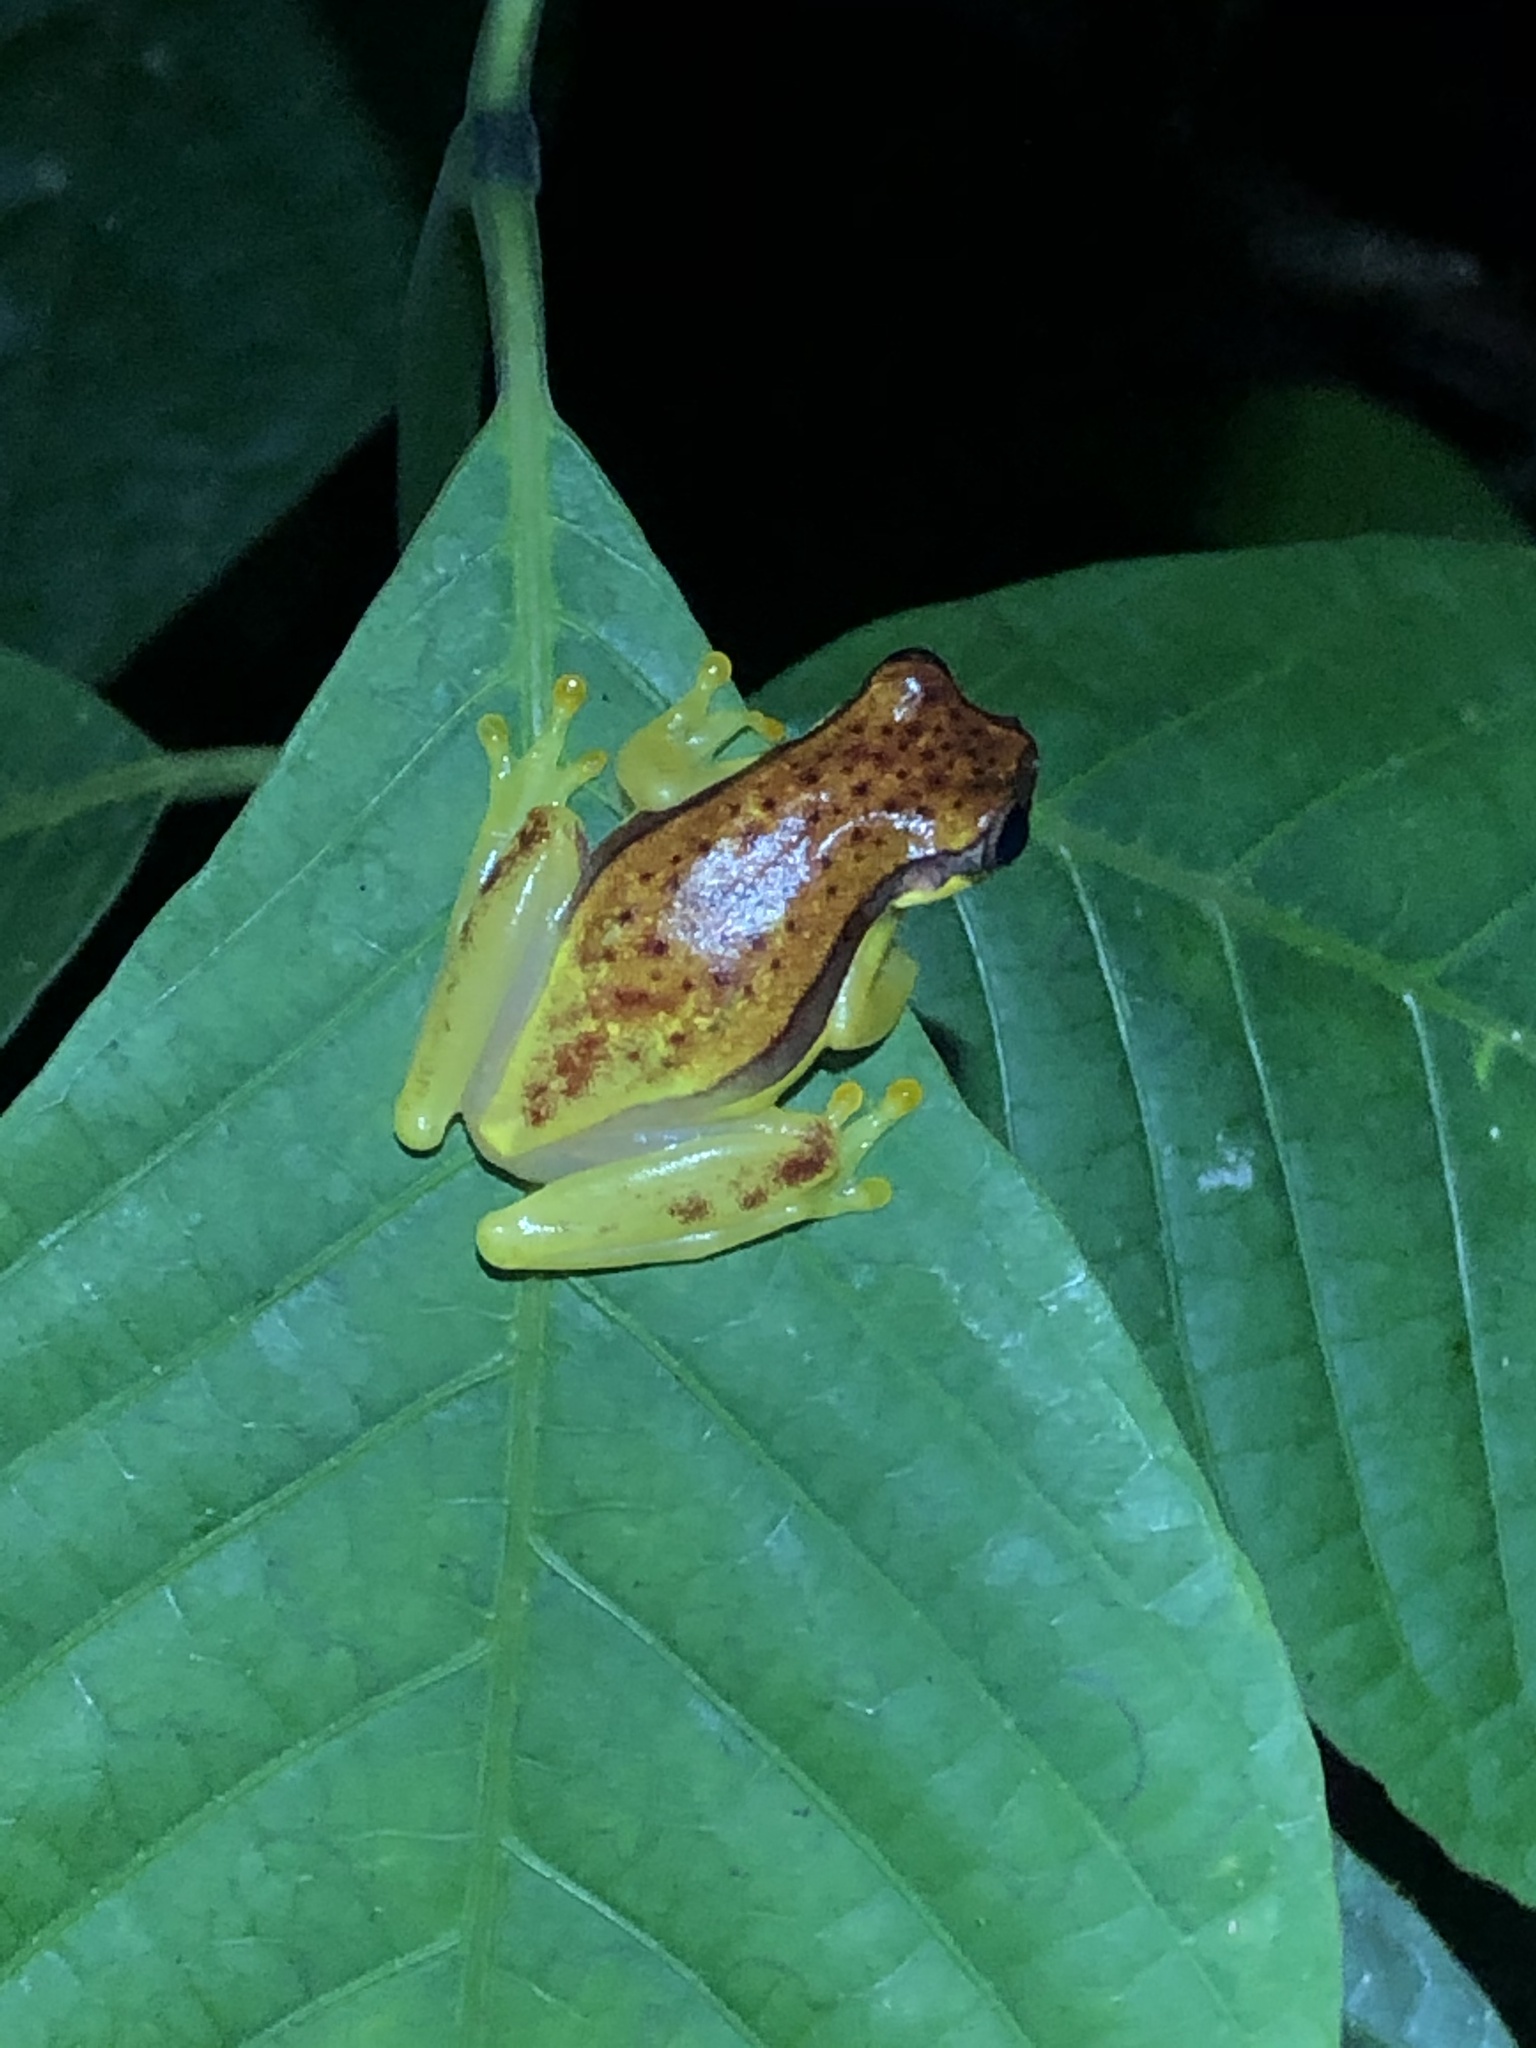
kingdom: Animalia
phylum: Chordata
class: Amphibia
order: Anura
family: Hylidae
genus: Dendropsophus
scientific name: Dendropsophus rhodopeplus
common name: Red-skirted treefrog
